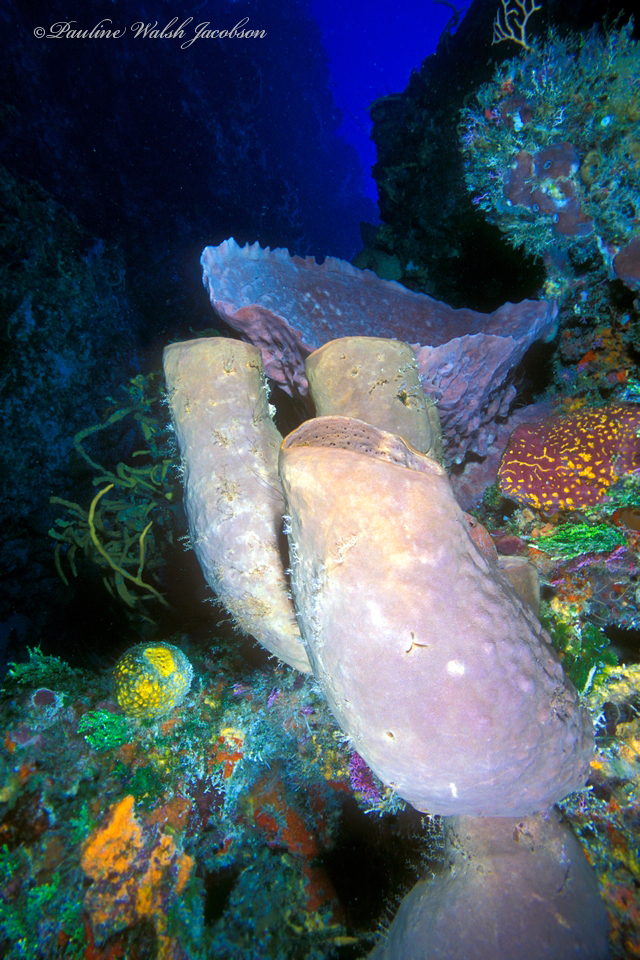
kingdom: Animalia
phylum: Porifera
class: Demospongiae
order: Agelasida
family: Agelasidae
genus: Agelas
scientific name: Agelas tubulata
